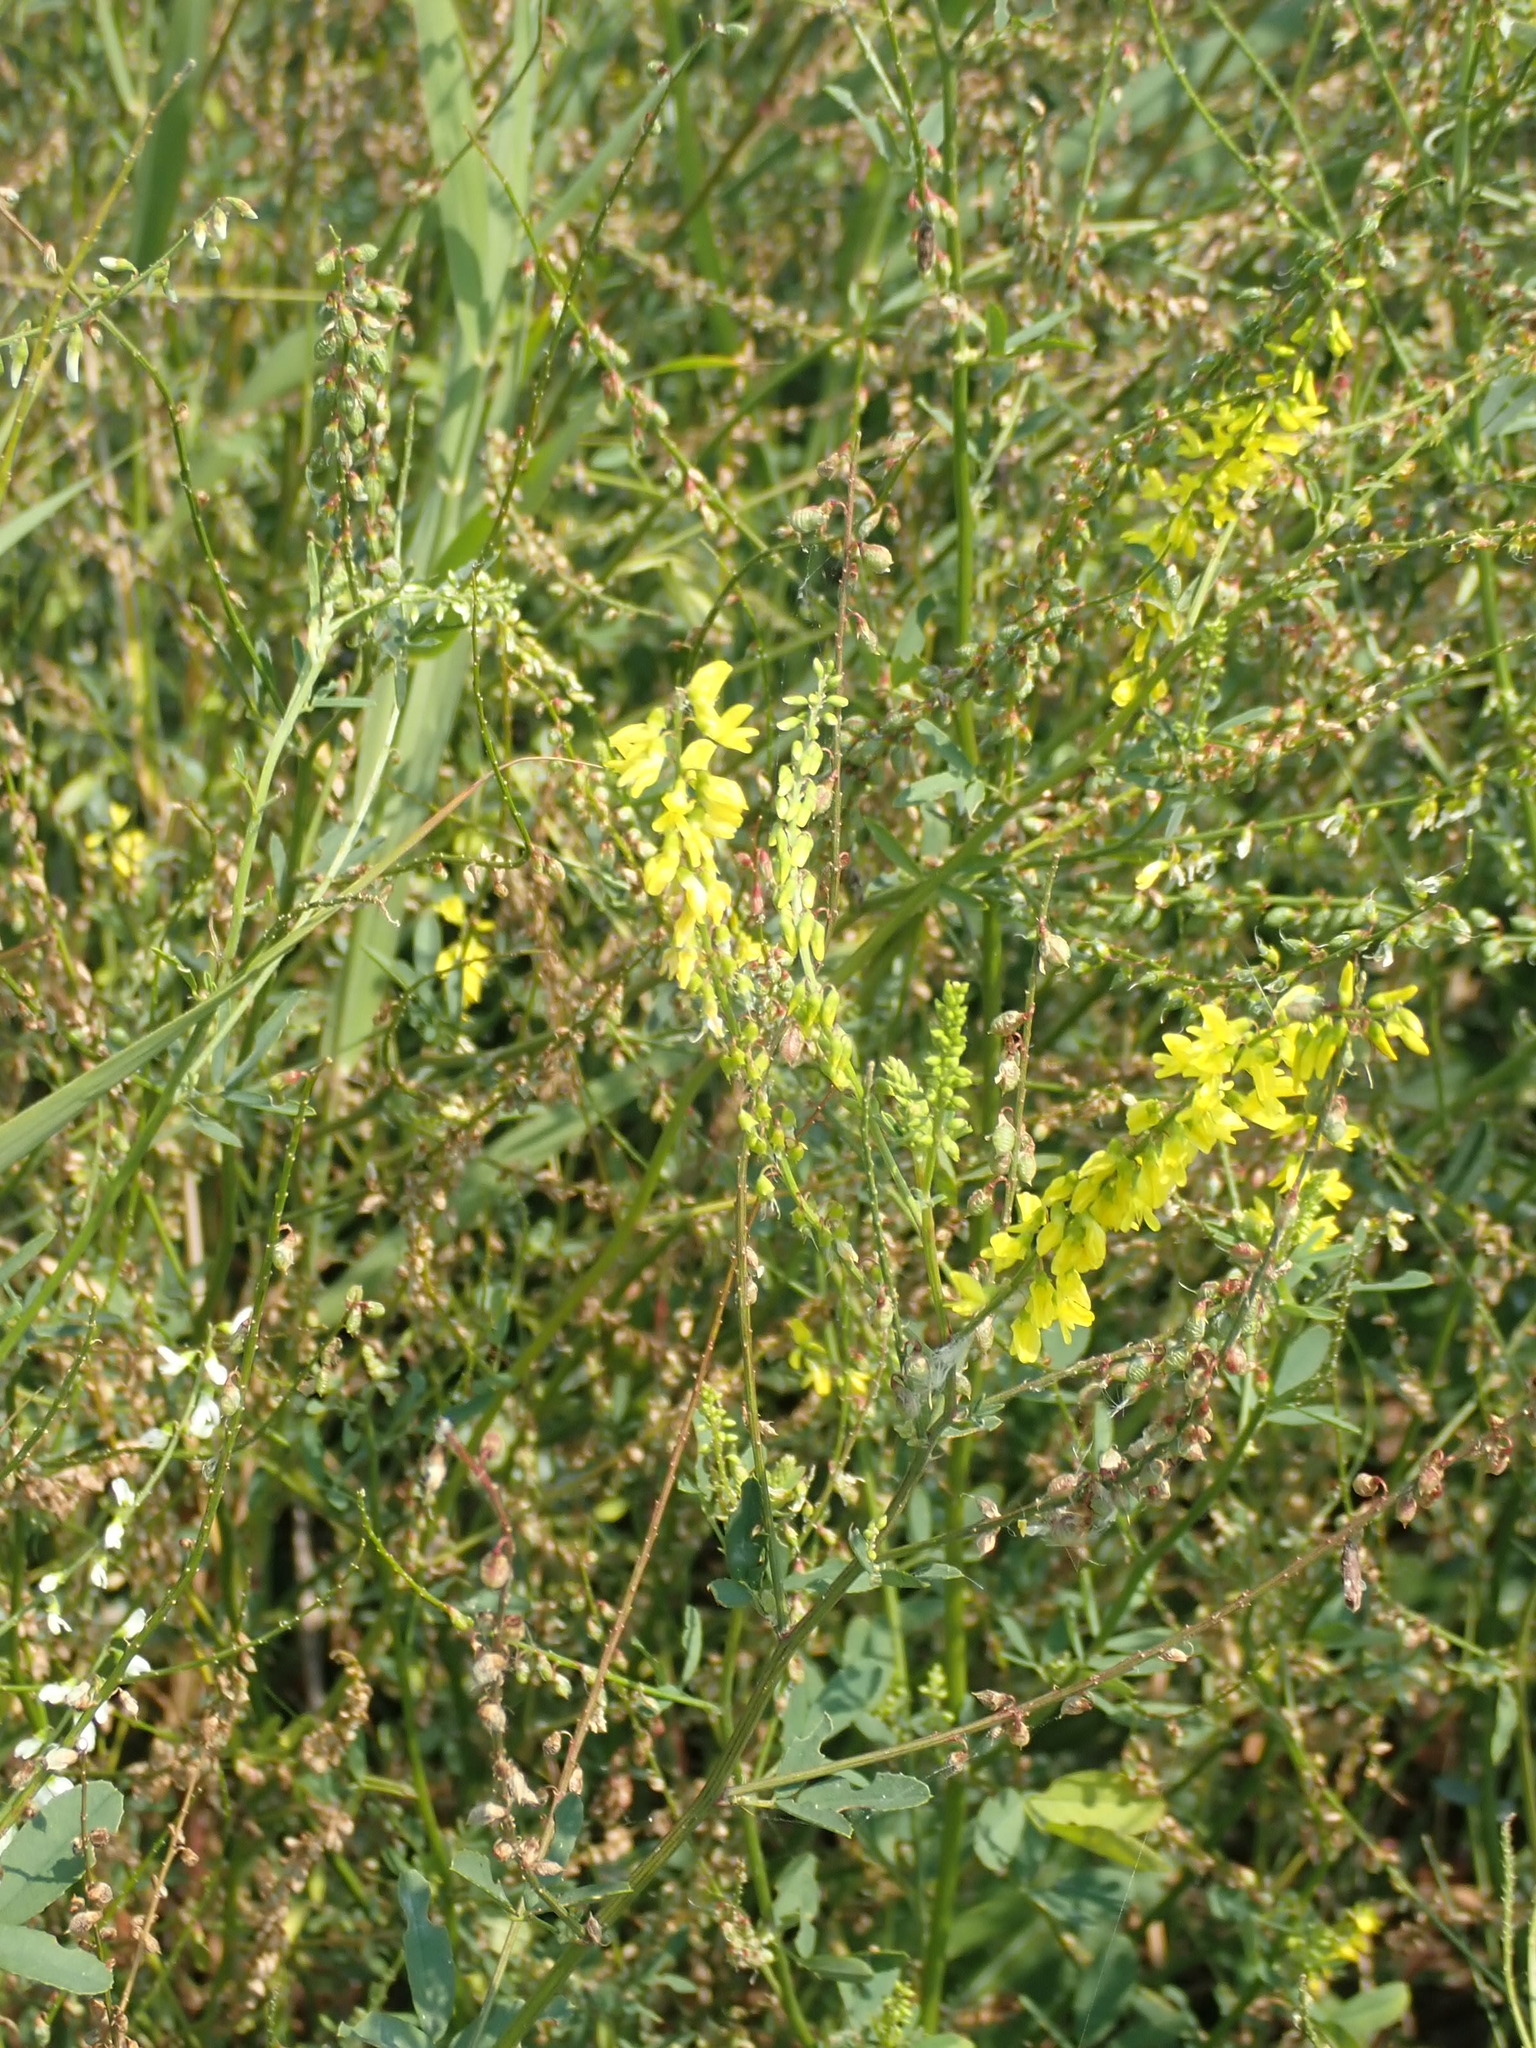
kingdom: Plantae
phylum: Tracheophyta
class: Magnoliopsida
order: Fabales
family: Fabaceae
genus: Melilotus
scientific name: Melilotus officinalis
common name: Sweetclover
